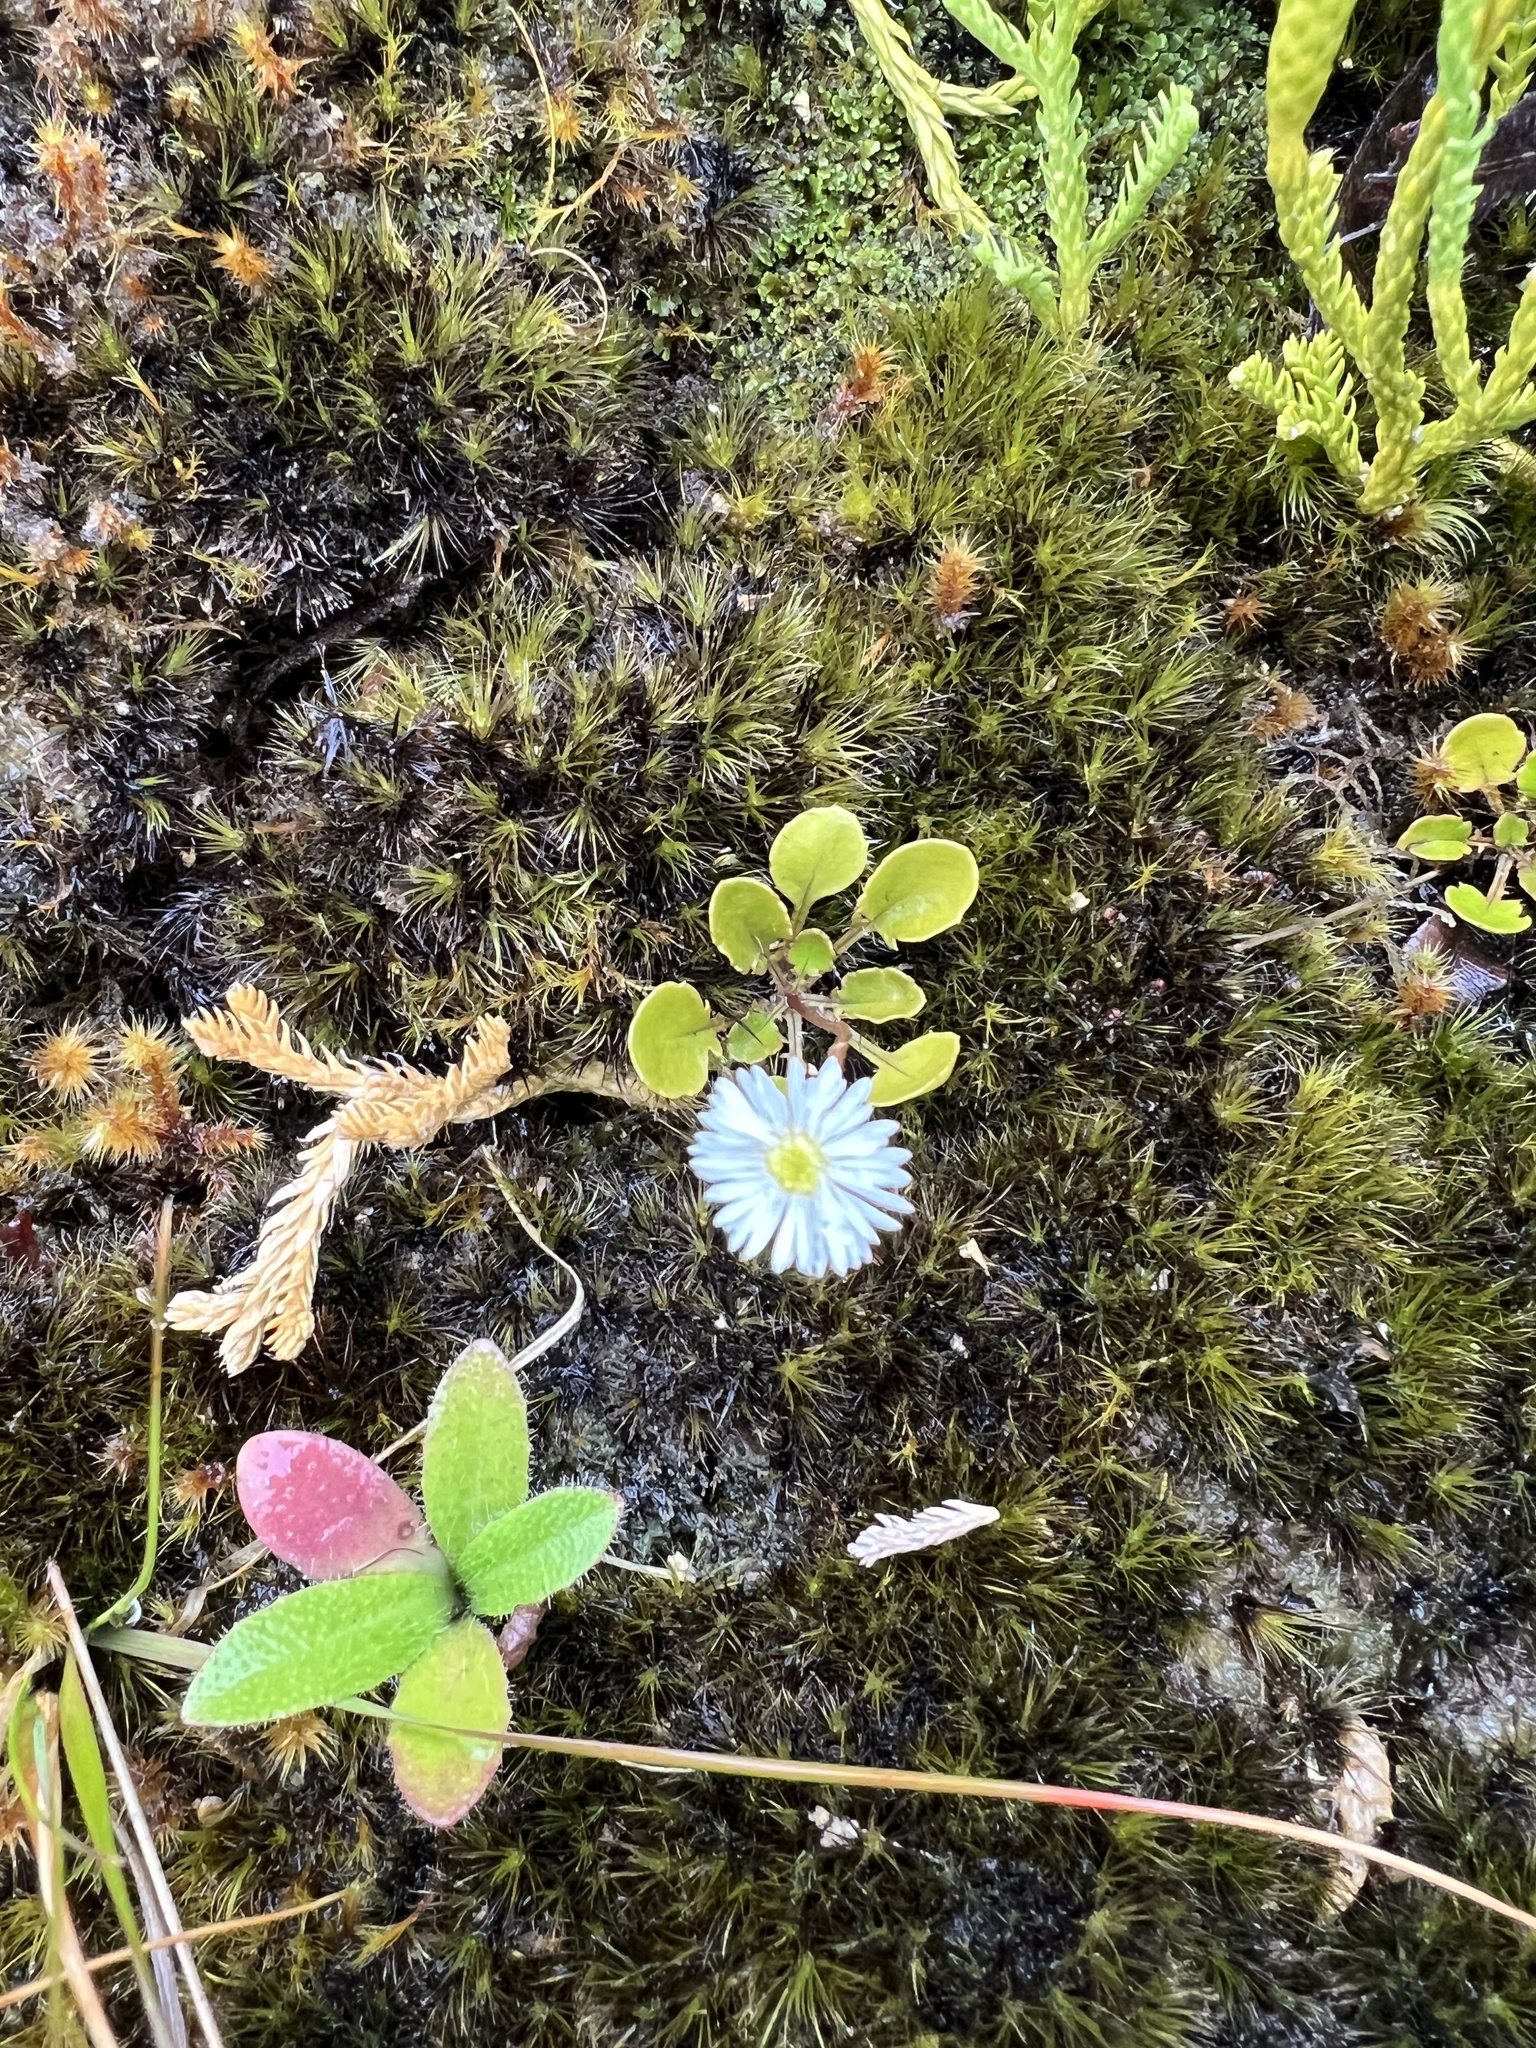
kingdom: Plantae
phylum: Tracheophyta
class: Magnoliopsida
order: Asterales
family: Asteraceae
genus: Lagenophora
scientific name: Lagenophora pumila
